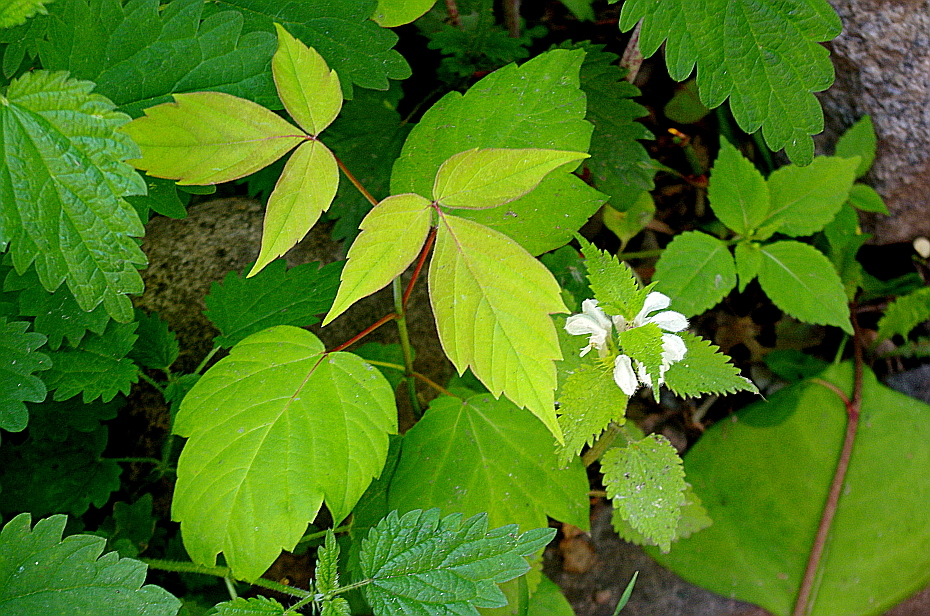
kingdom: Plantae
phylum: Tracheophyta
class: Magnoliopsida
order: Sapindales
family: Sapindaceae
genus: Acer
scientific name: Acer negundo
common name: Ashleaf maple
